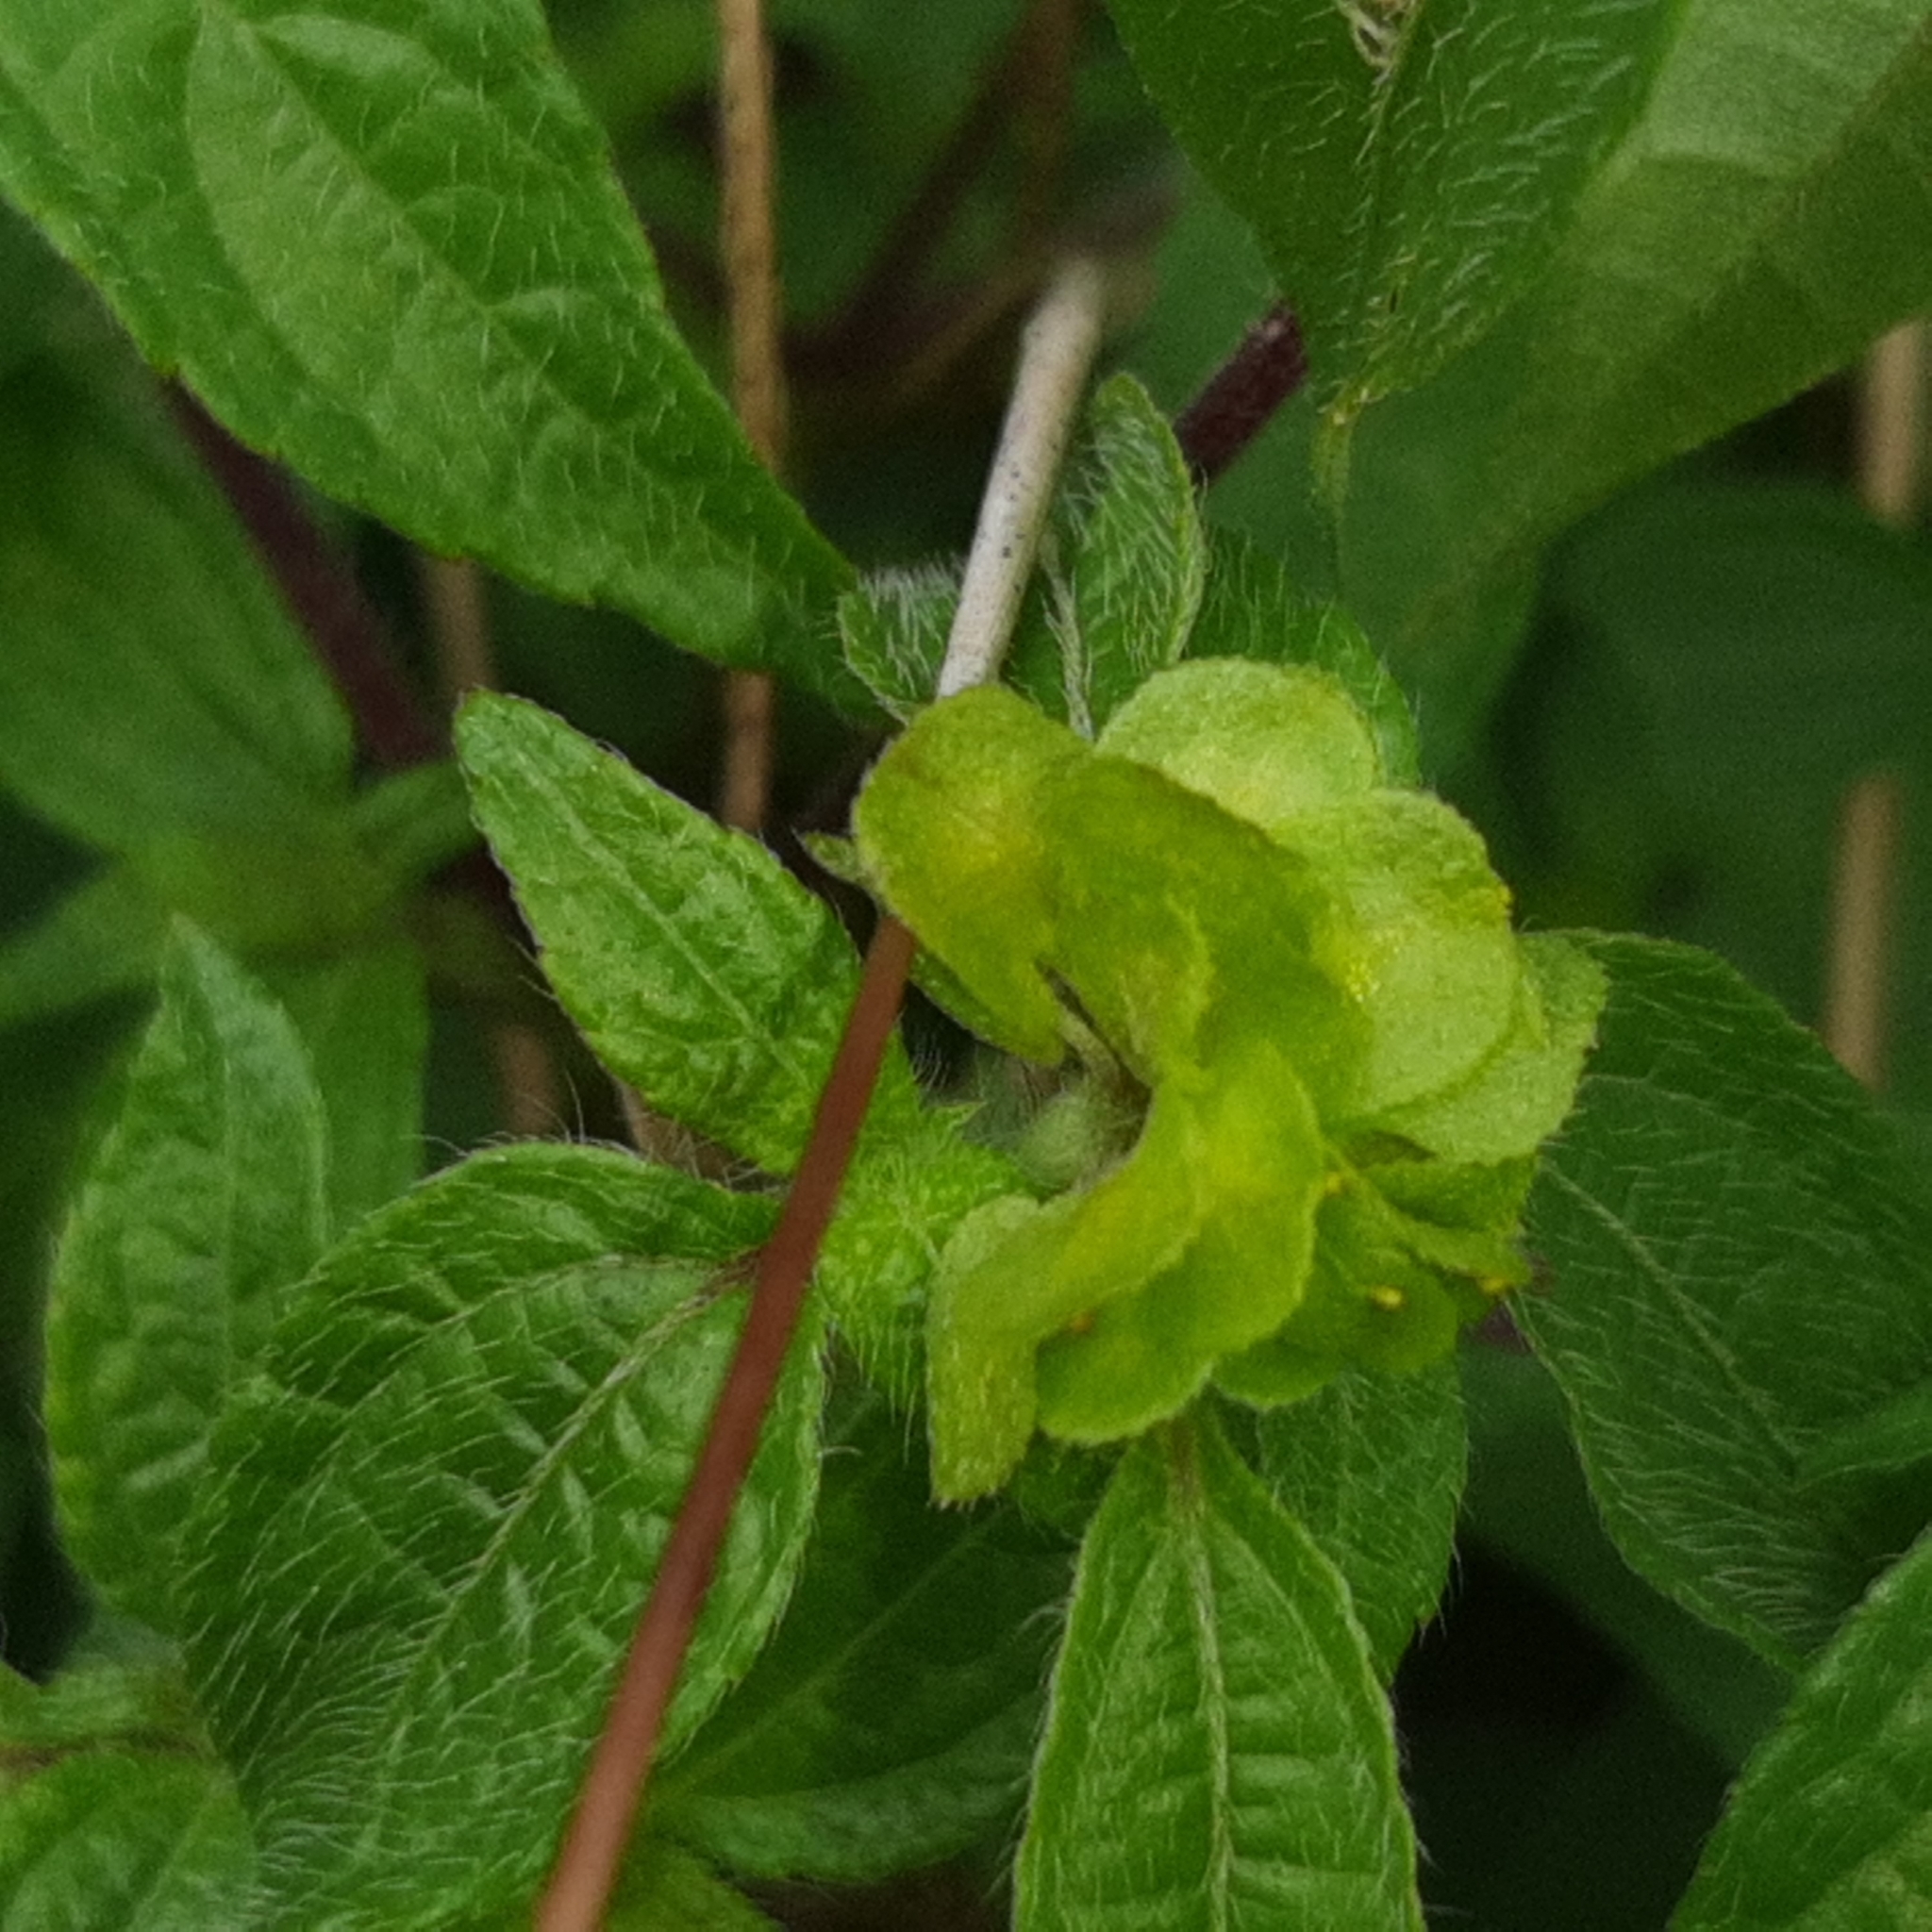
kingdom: Plantae
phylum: Tracheophyta
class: Magnoliopsida
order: Asterales
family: Asteraceae
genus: Delilia
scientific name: Delilia biflora
